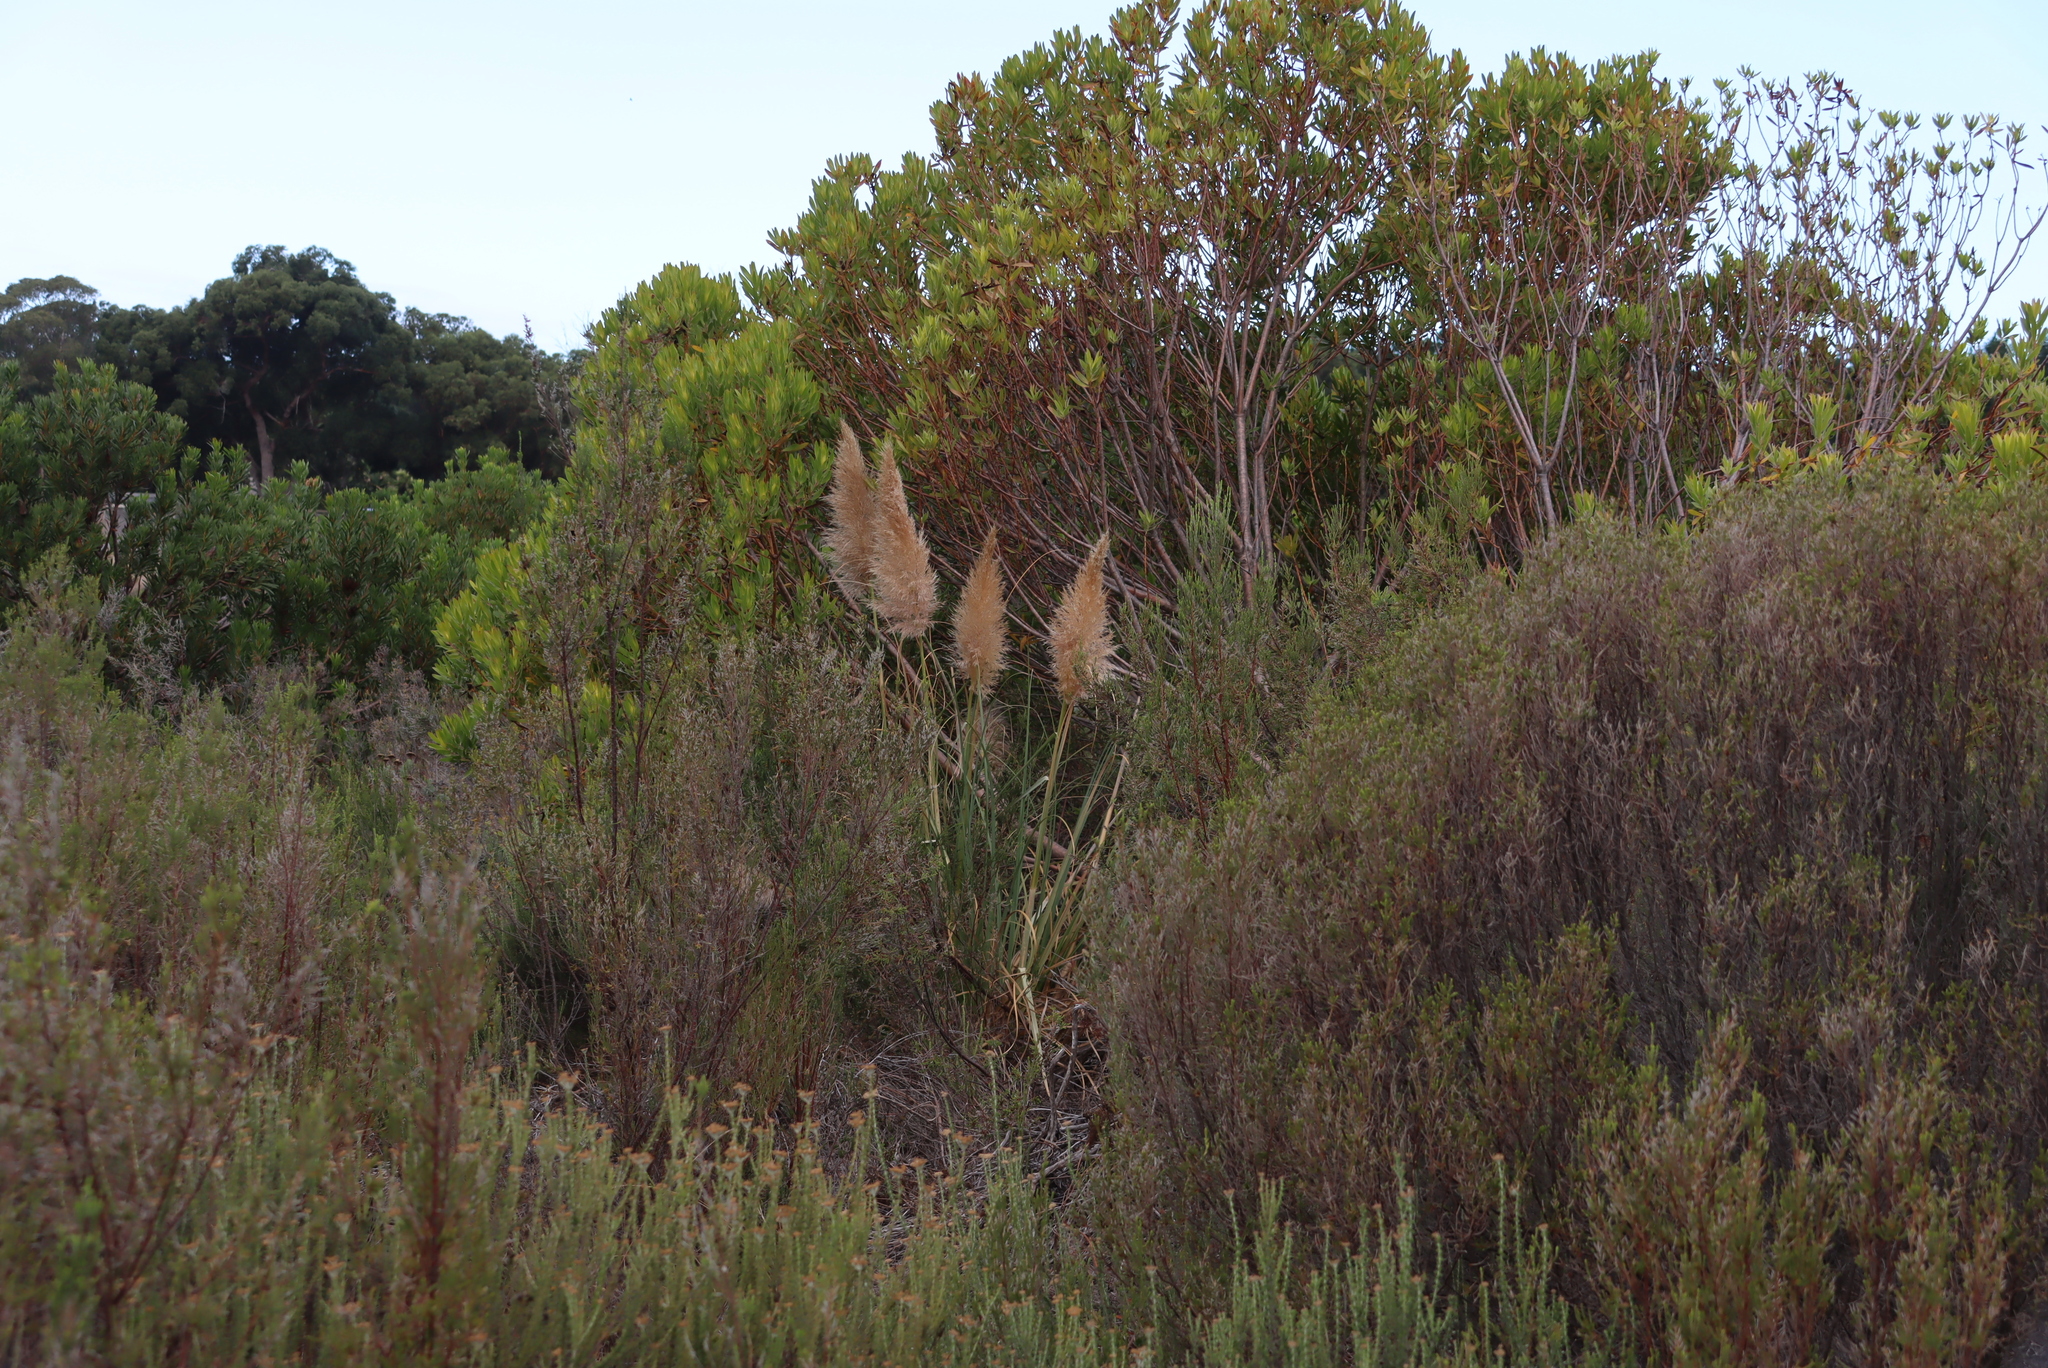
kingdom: Plantae
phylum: Tracheophyta
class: Liliopsida
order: Poales
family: Poaceae
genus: Cortaderia
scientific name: Cortaderia selloana
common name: Uruguayan pampas grass
